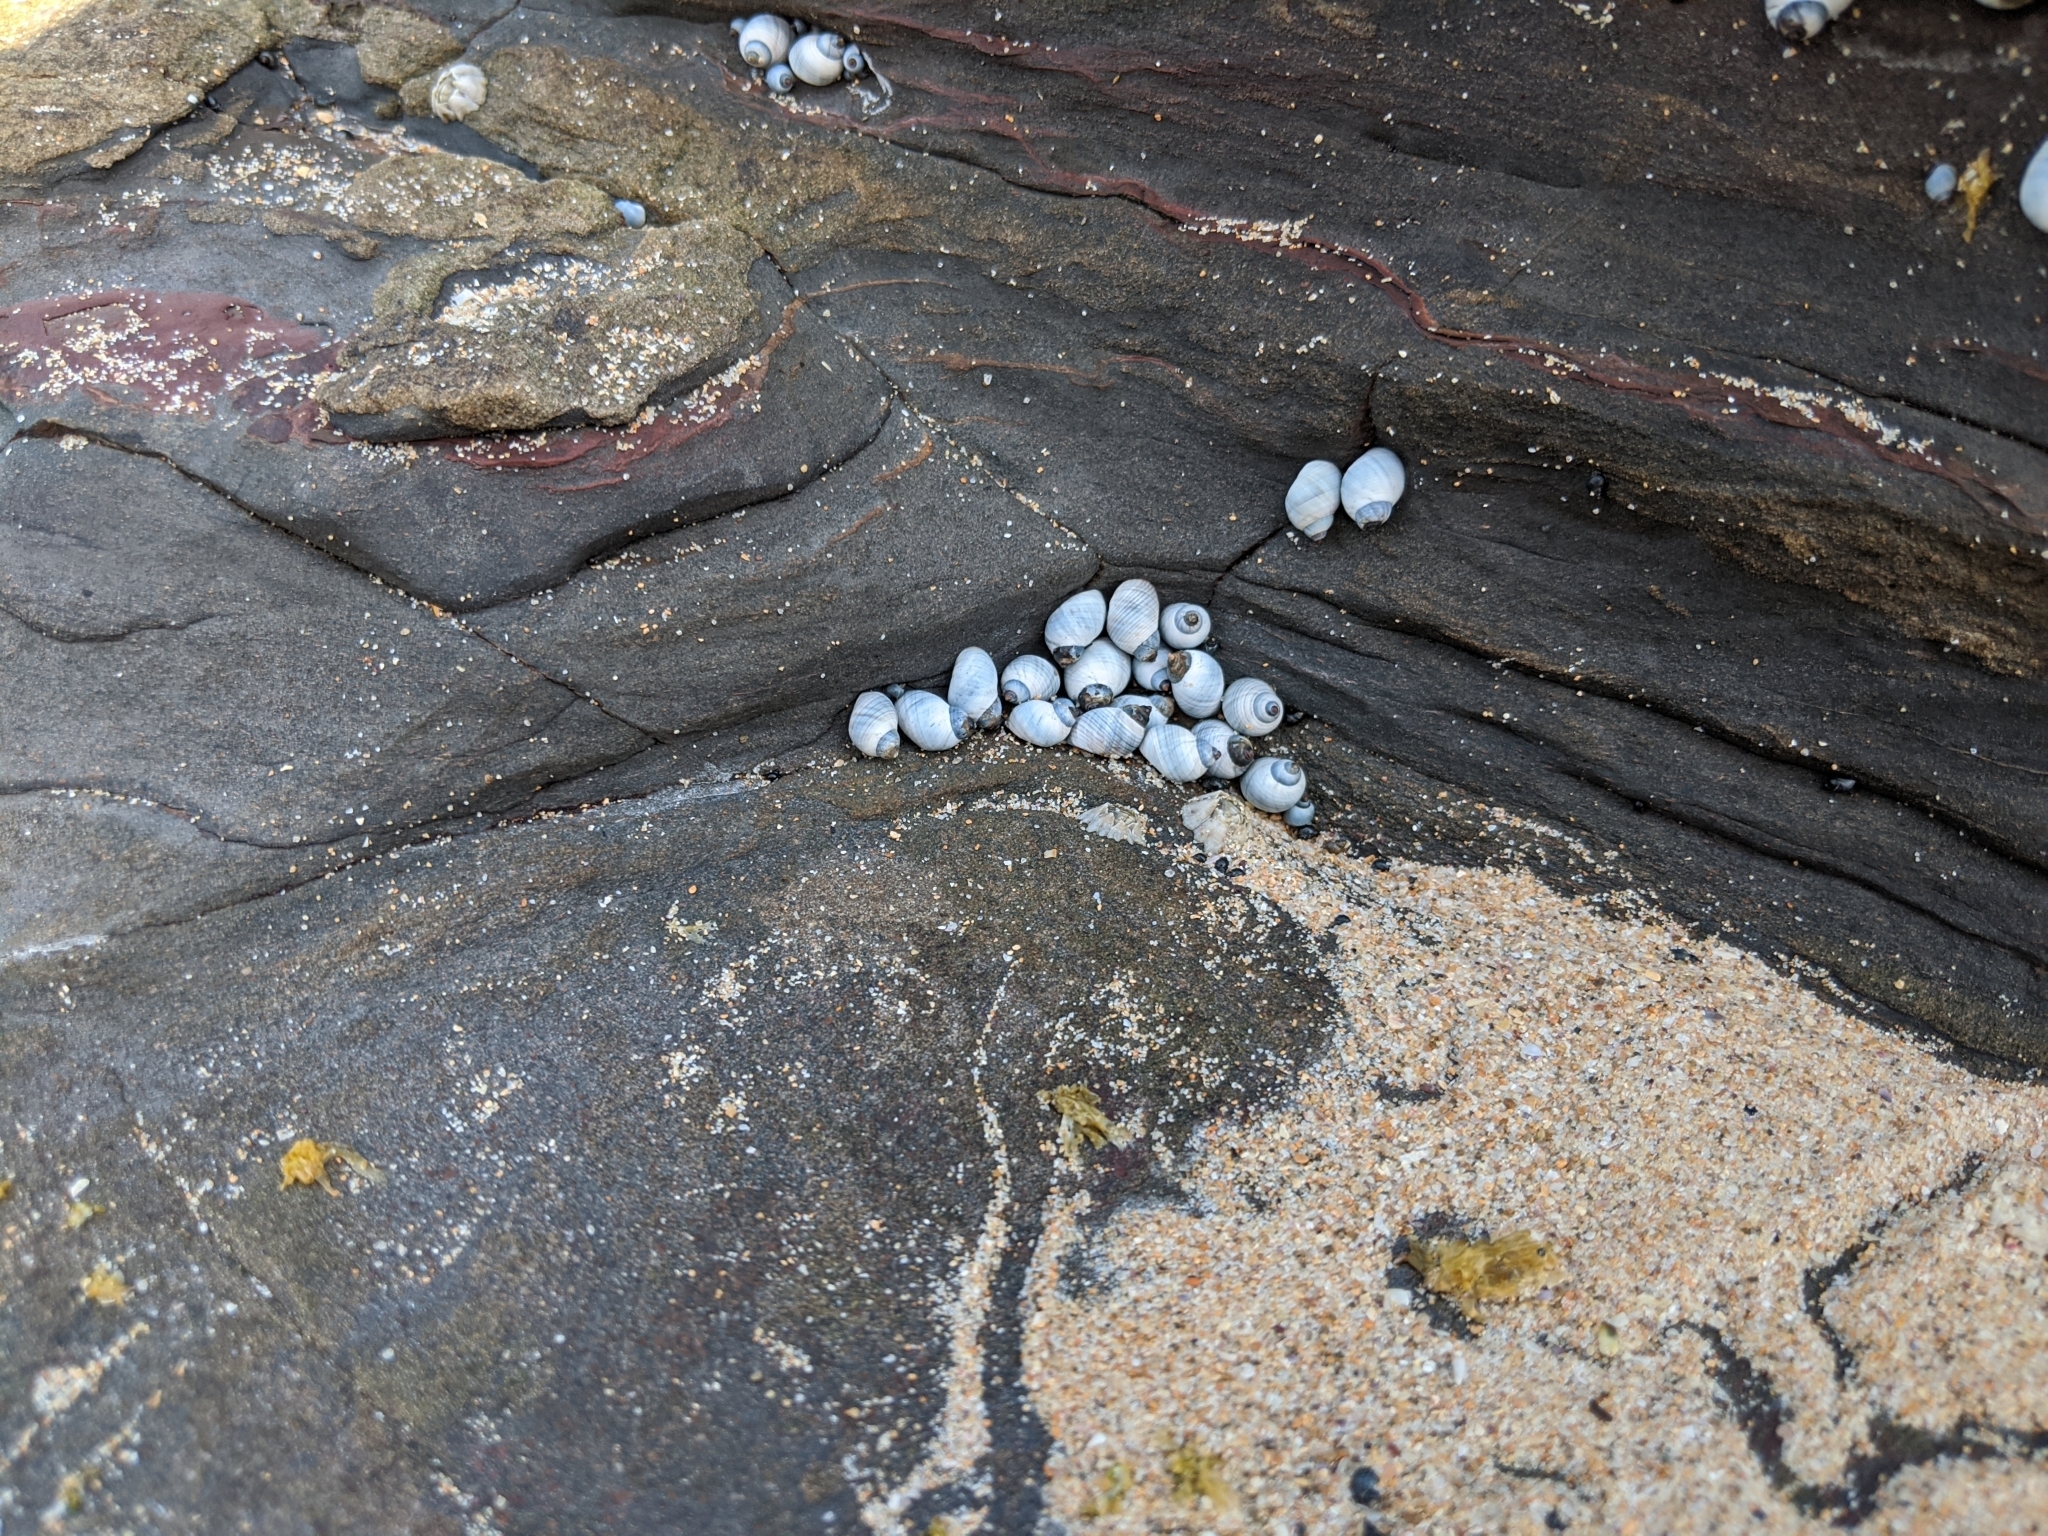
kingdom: Animalia
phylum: Mollusca
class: Gastropoda
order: Littorinimorpha
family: Littorinidae
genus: Austrolittorina
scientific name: Austrolittorina unifasciata
